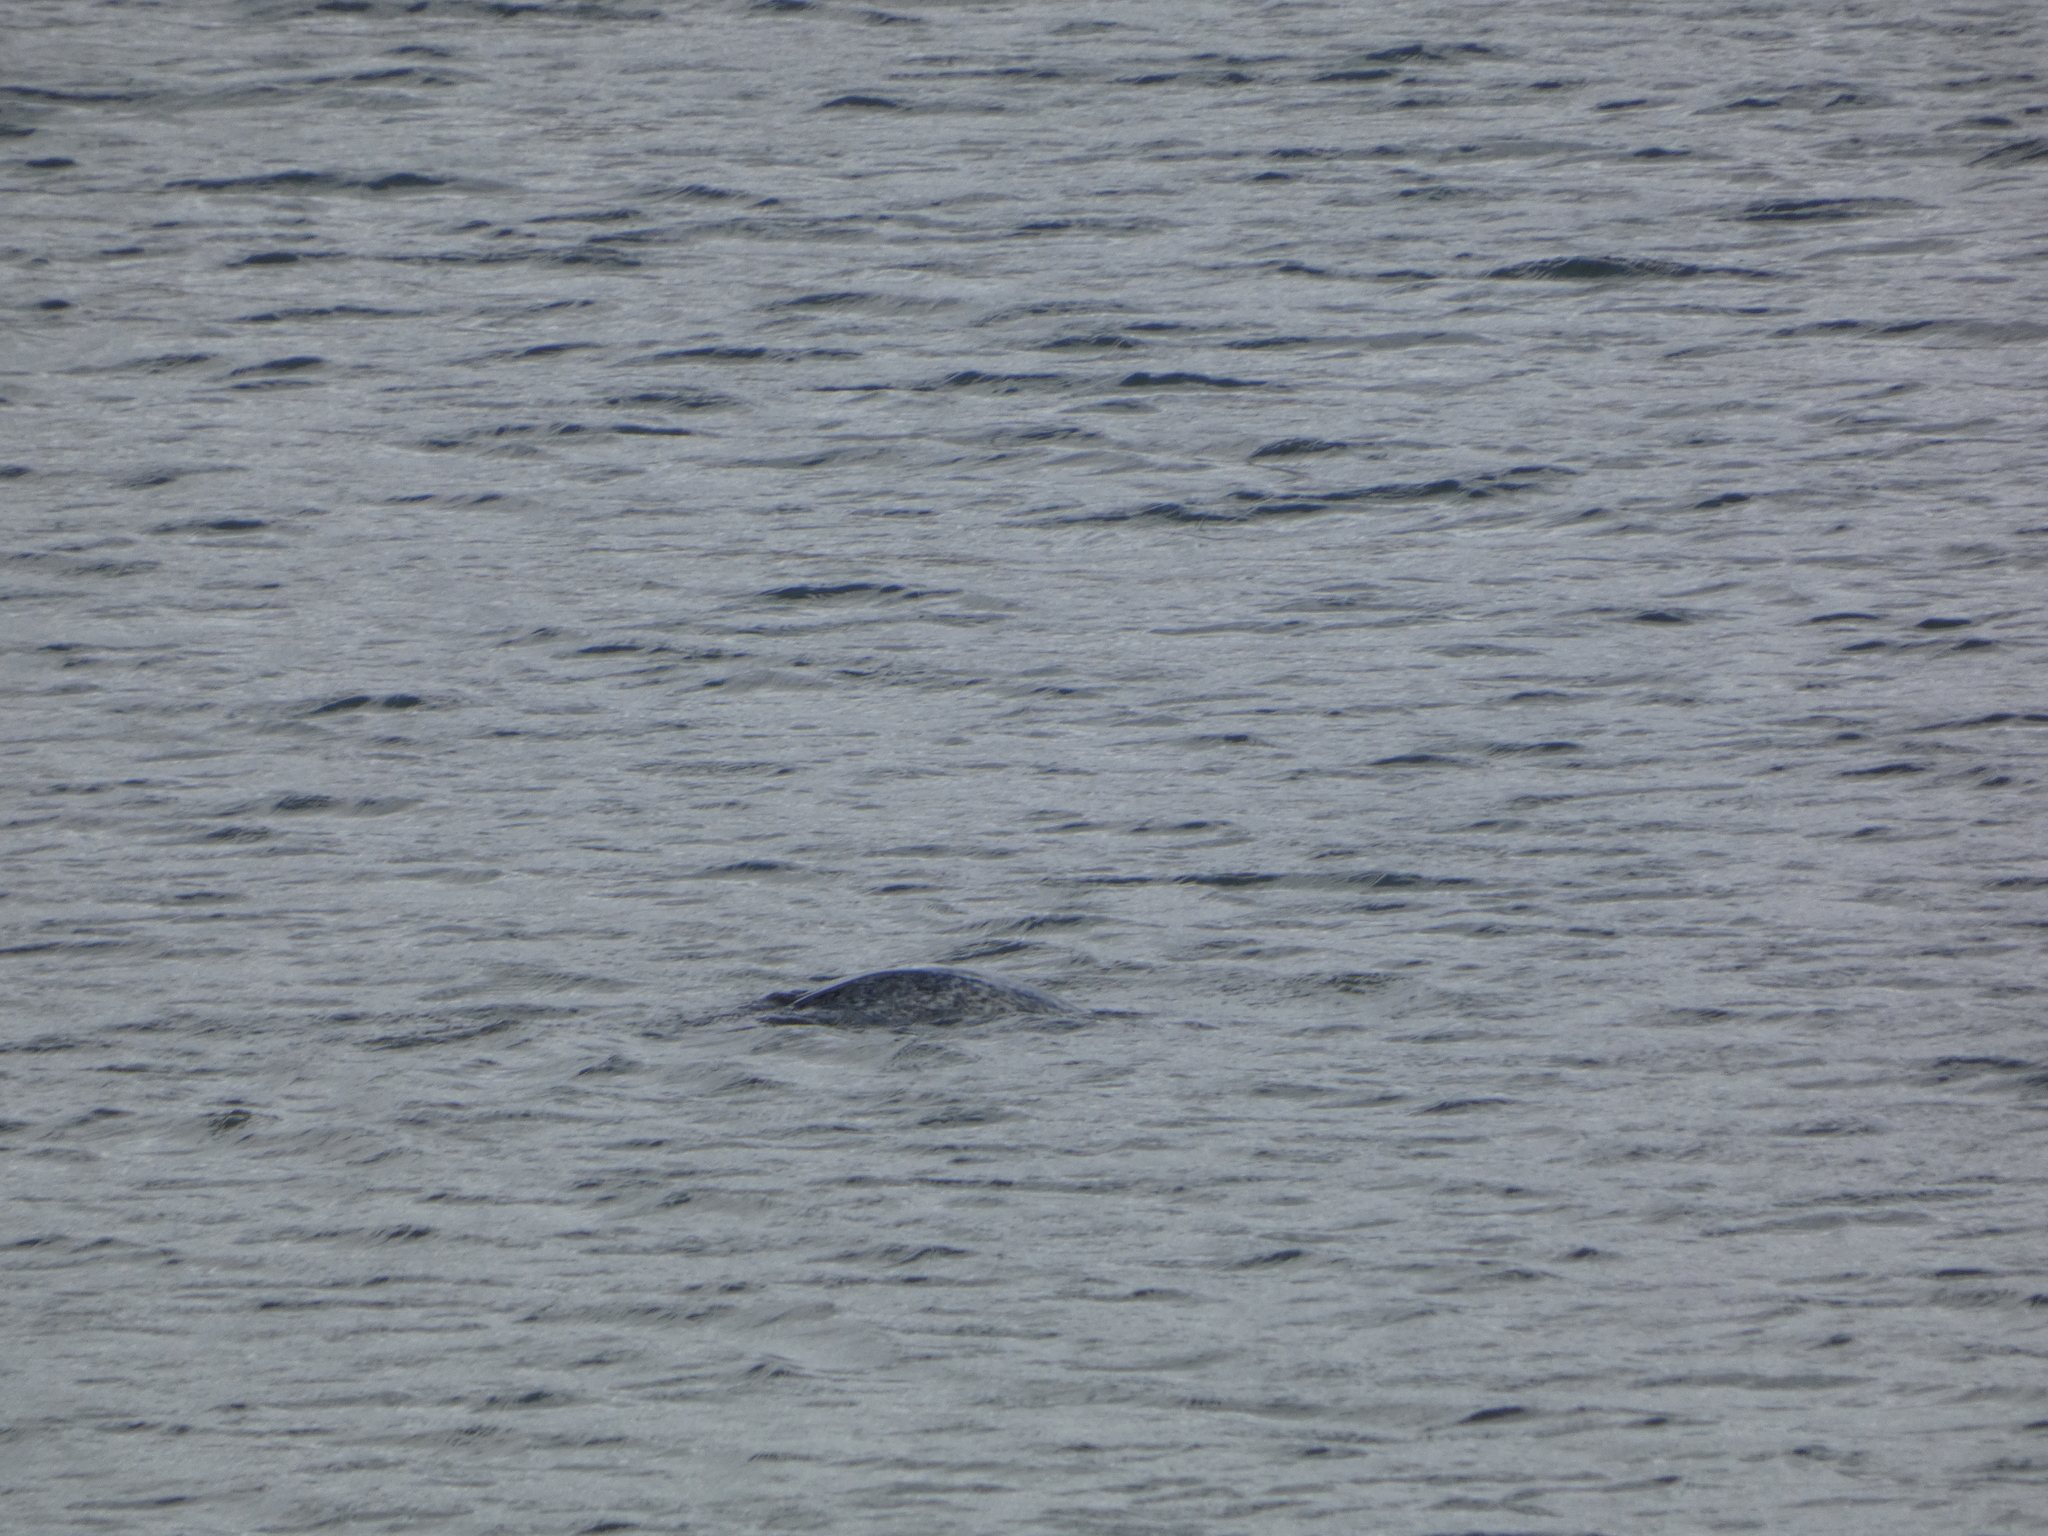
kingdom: Animalia
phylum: Chordata
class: Mammalia
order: Carnivora
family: Phocidae
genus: Phoca
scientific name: Phoca vitulina
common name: Harbor seal
